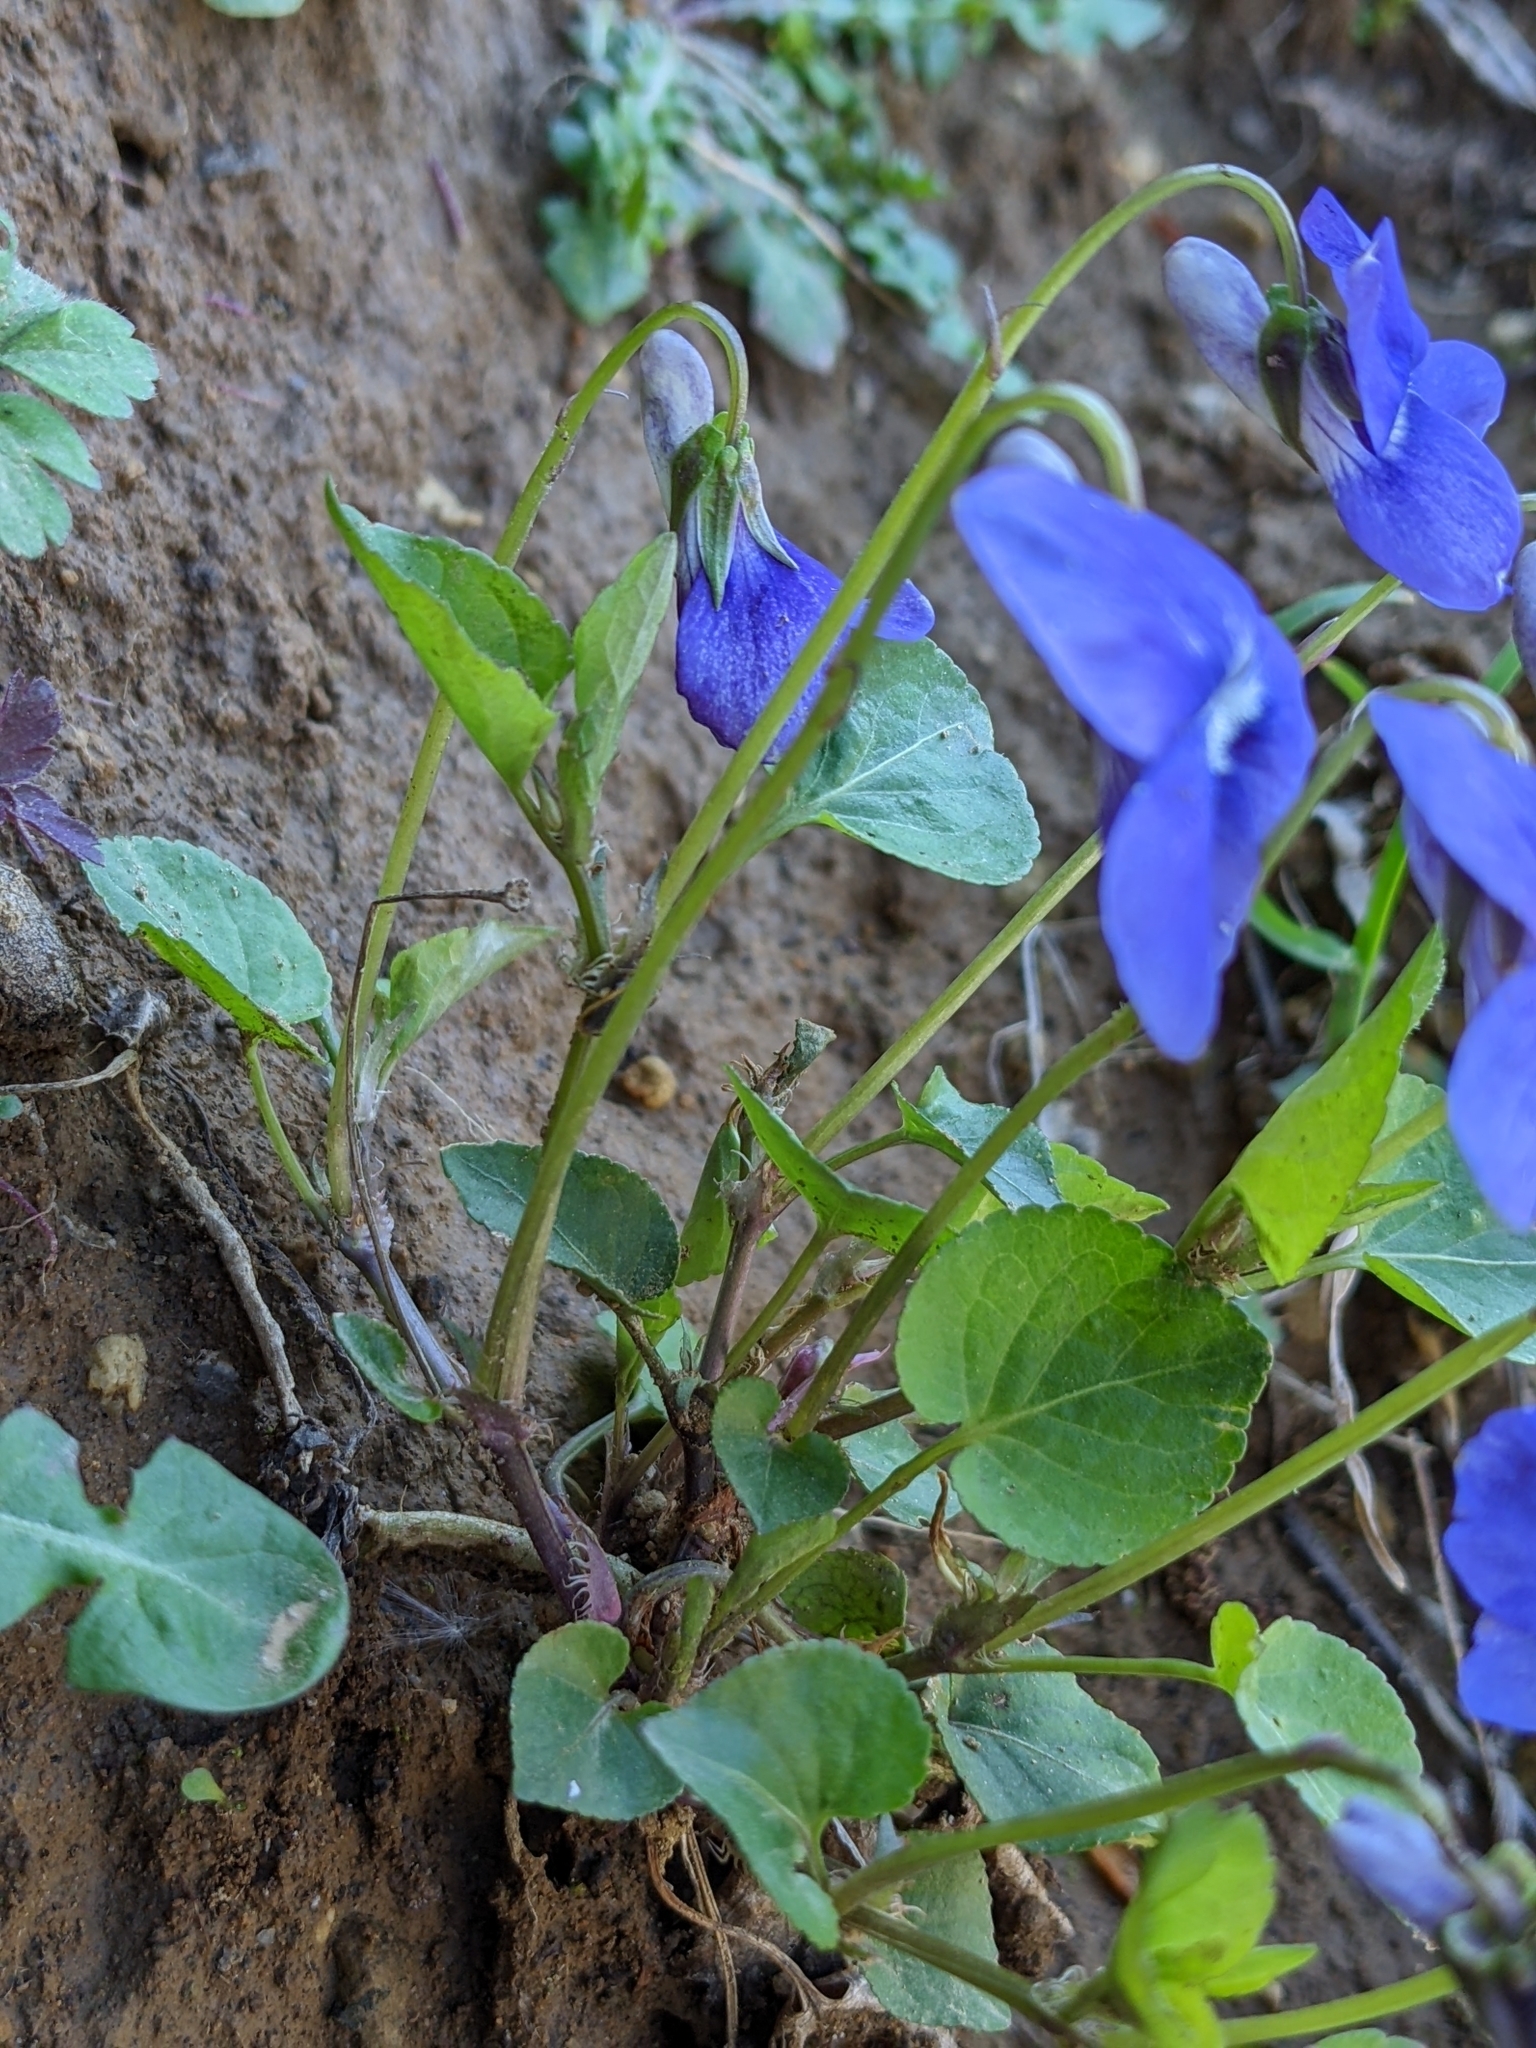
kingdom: Plantae
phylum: Tracheophyta
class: Magnoliopsida
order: Malpighiales
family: Violaceae
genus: Viola
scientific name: Viola riviniana
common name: Common dog-violet
